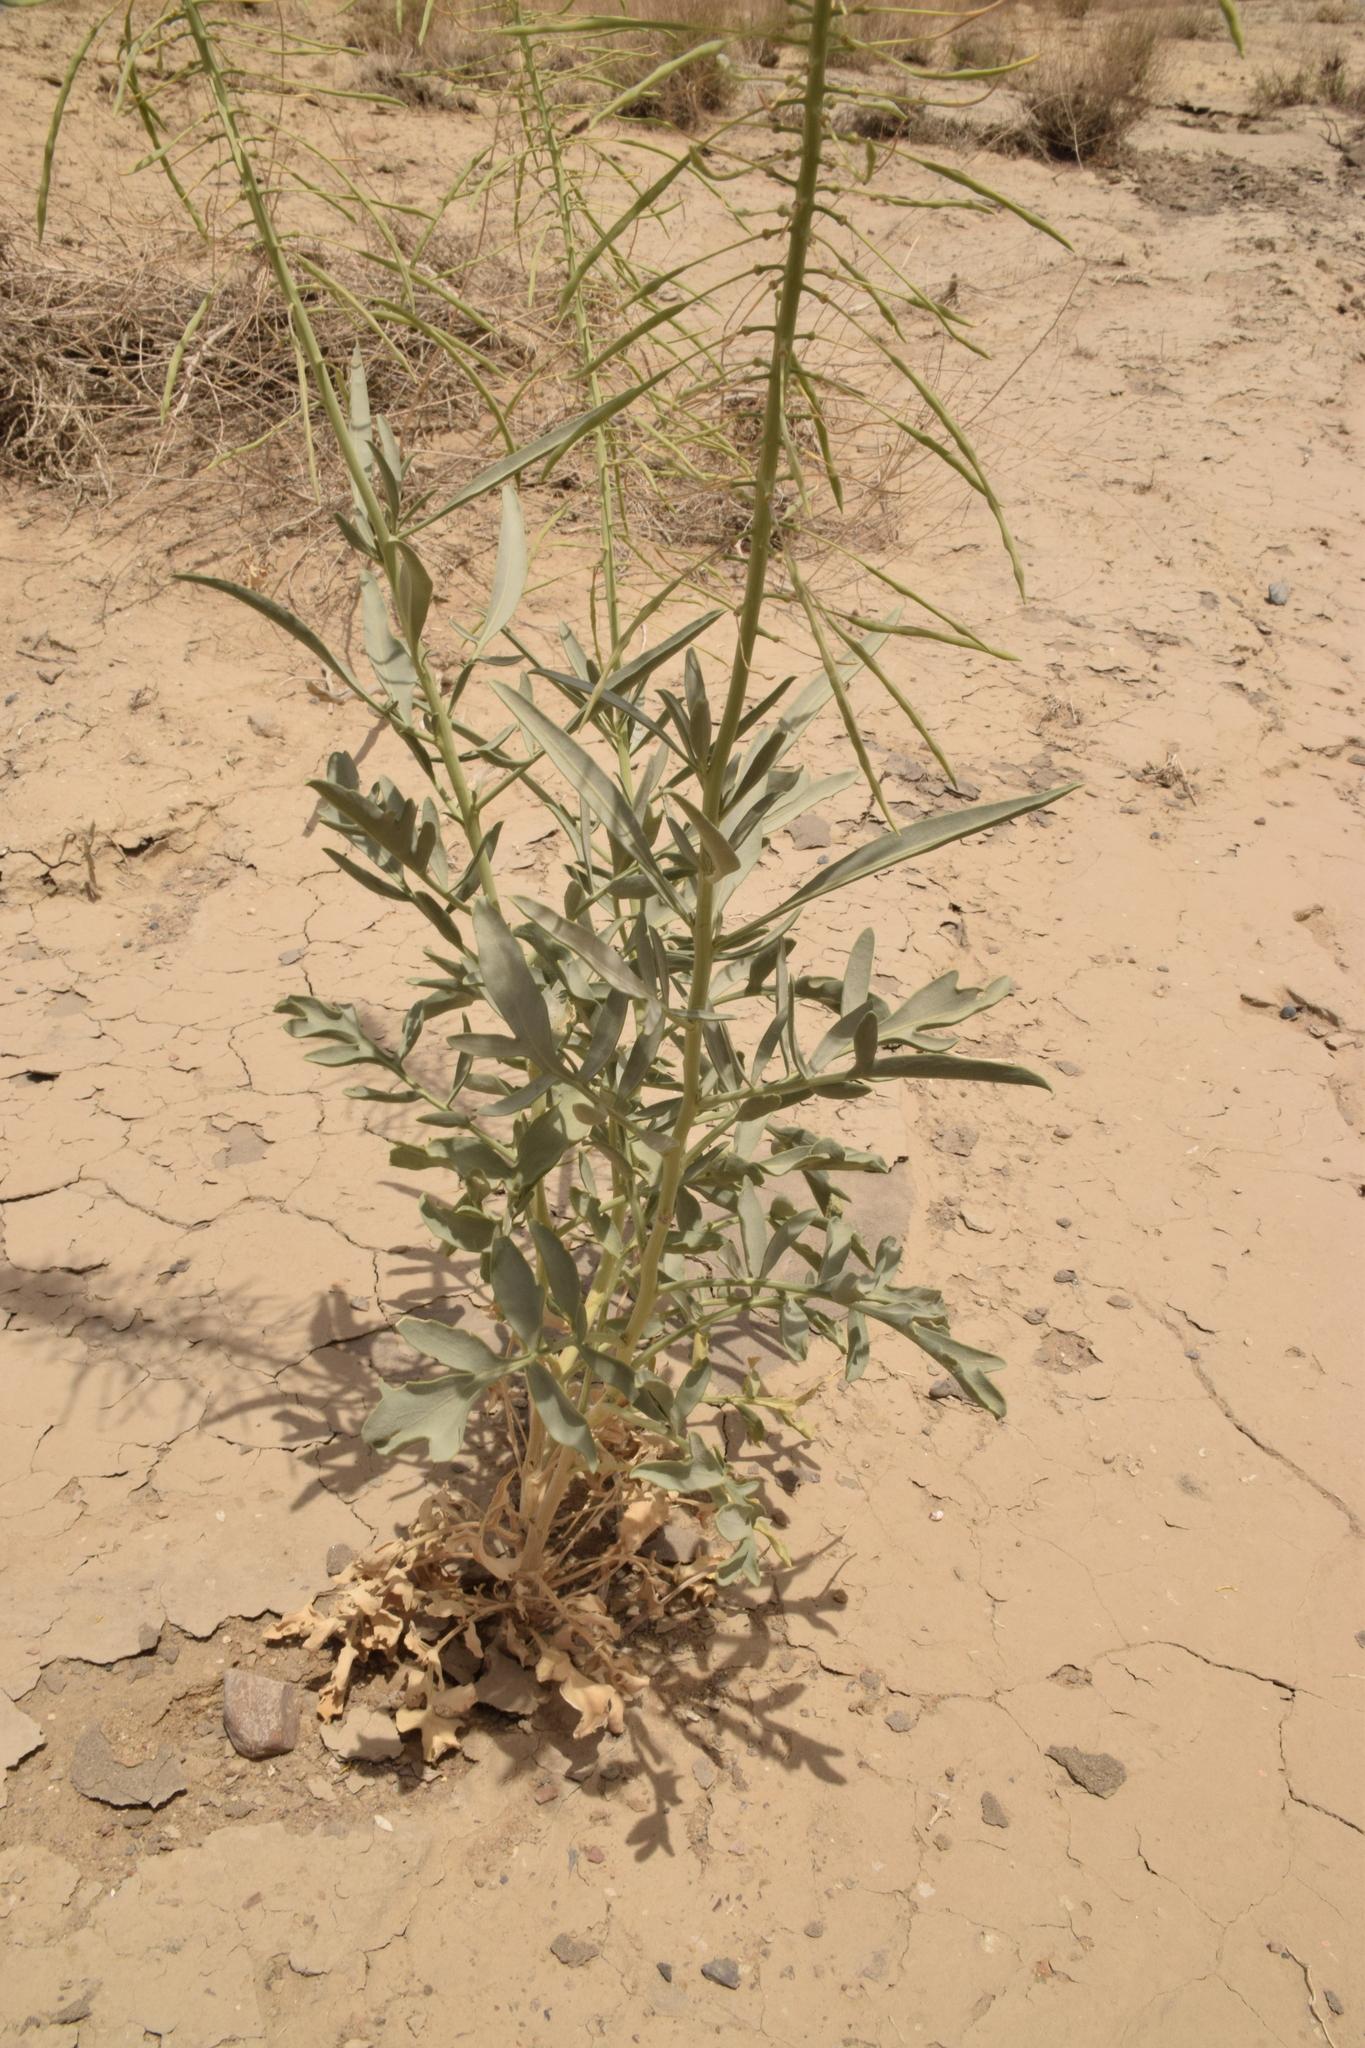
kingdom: Plantae
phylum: Tracheophyta
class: Magnoliopsida
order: Brassicales
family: Brassicaceae
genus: Stanleya
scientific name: Stanleya pinnata
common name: Prince's-plume
